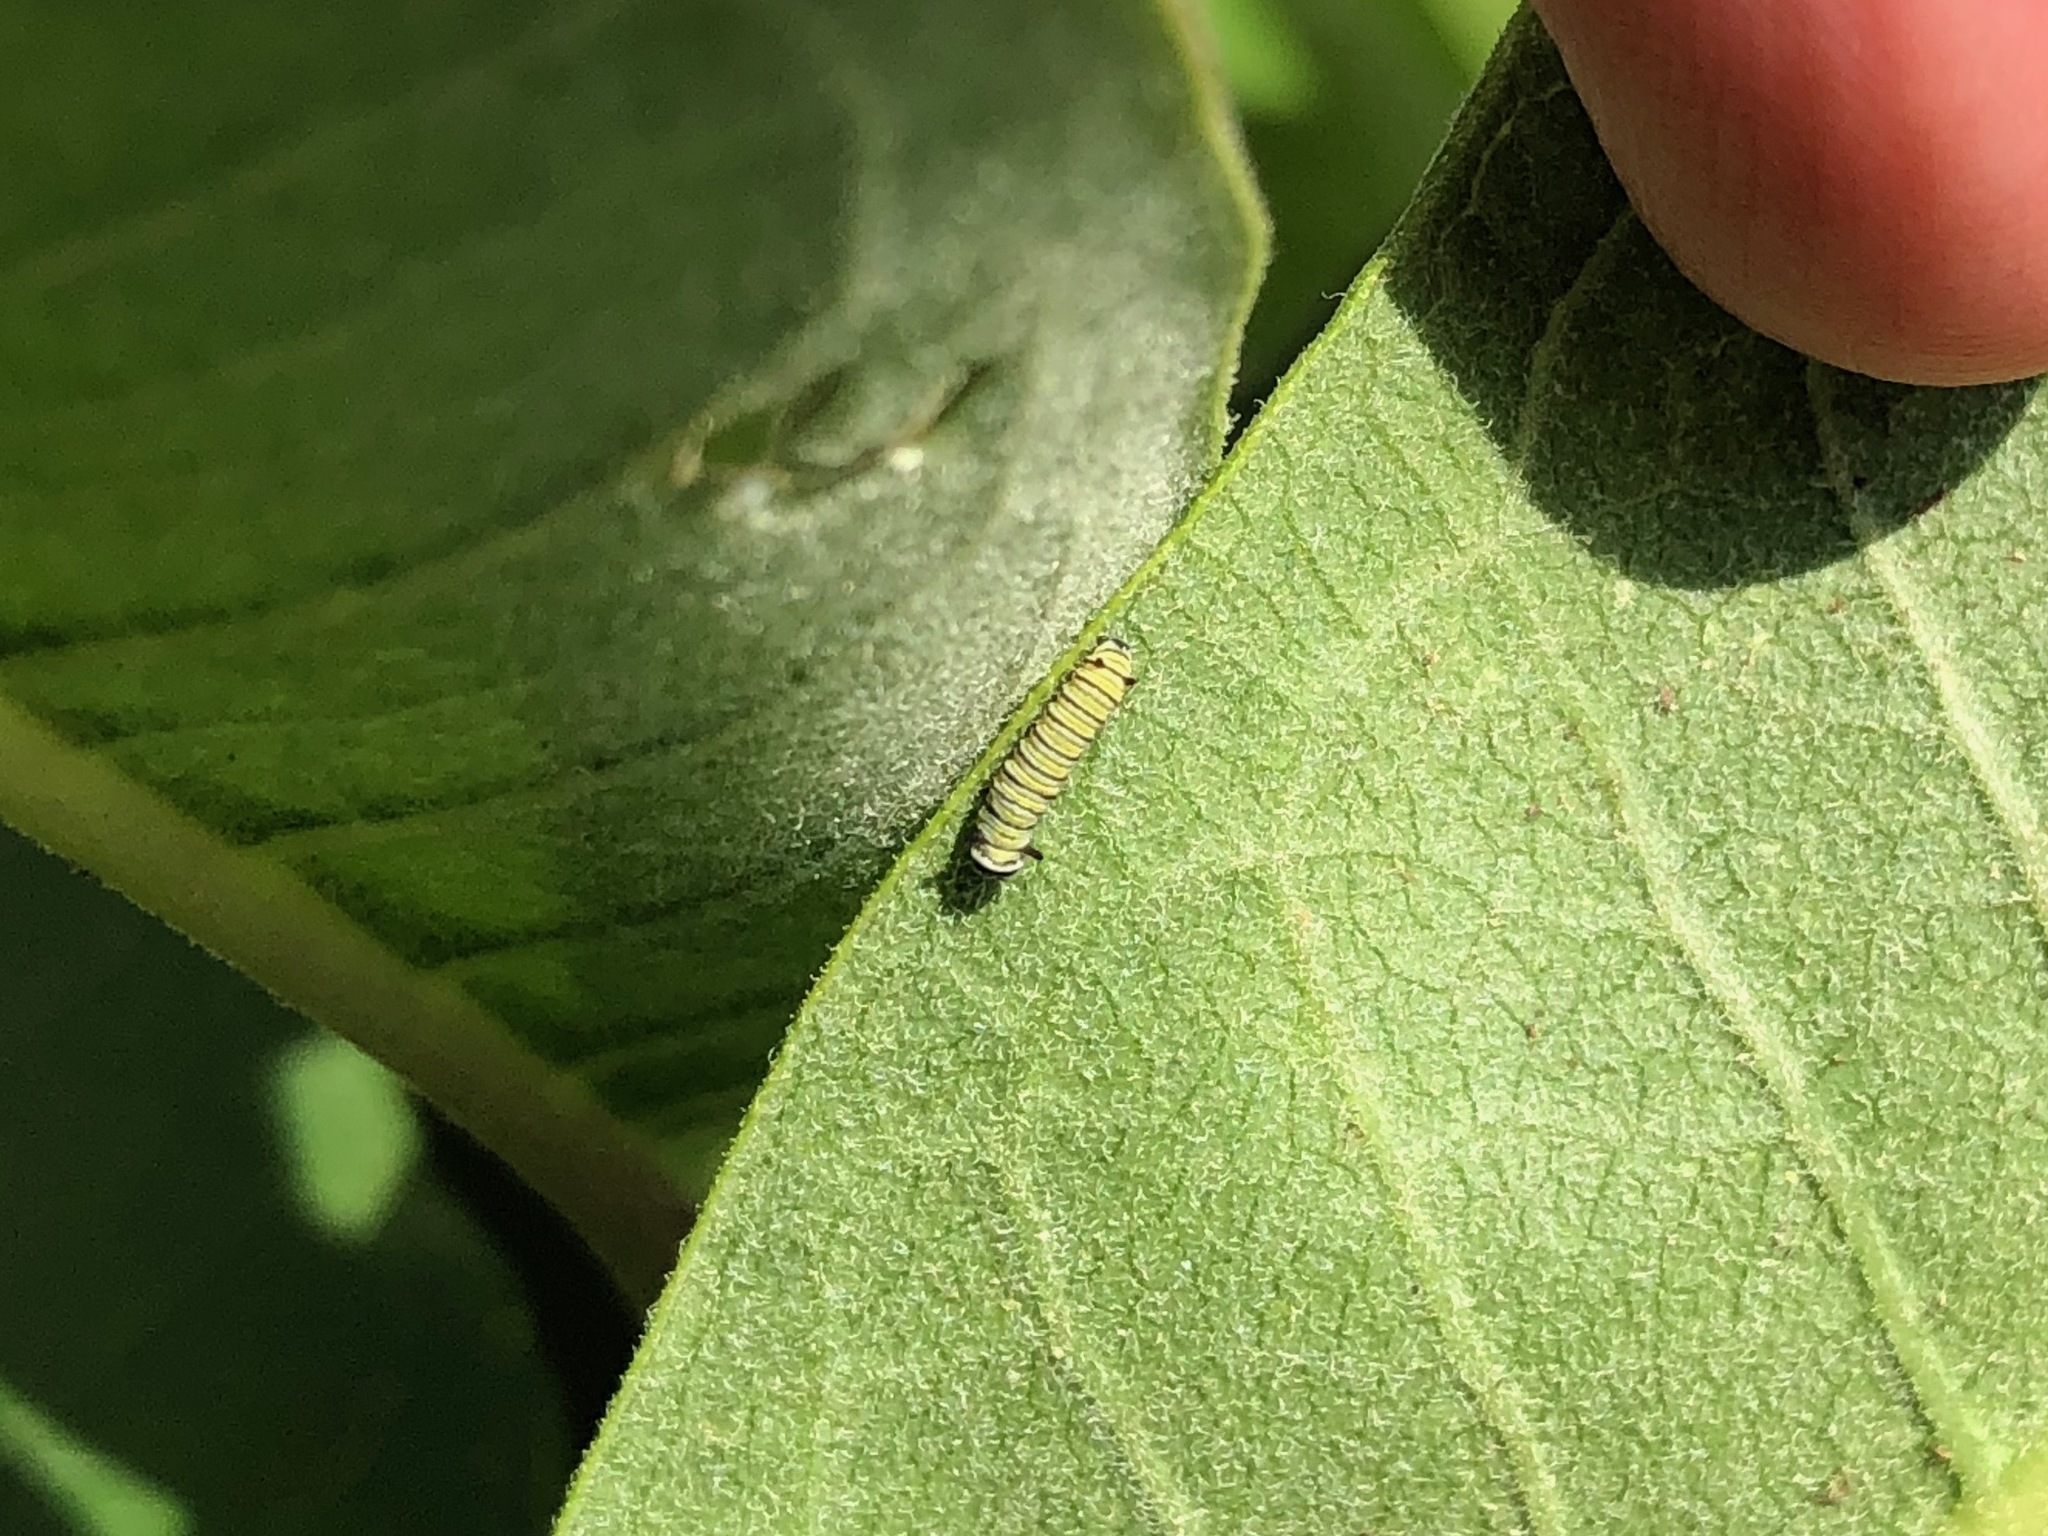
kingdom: Animalia
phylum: Arthropoda
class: Insecta
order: Lepidoptera
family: Nymphalidae
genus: Danaus
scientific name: Danaus plexippus
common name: Monarch
